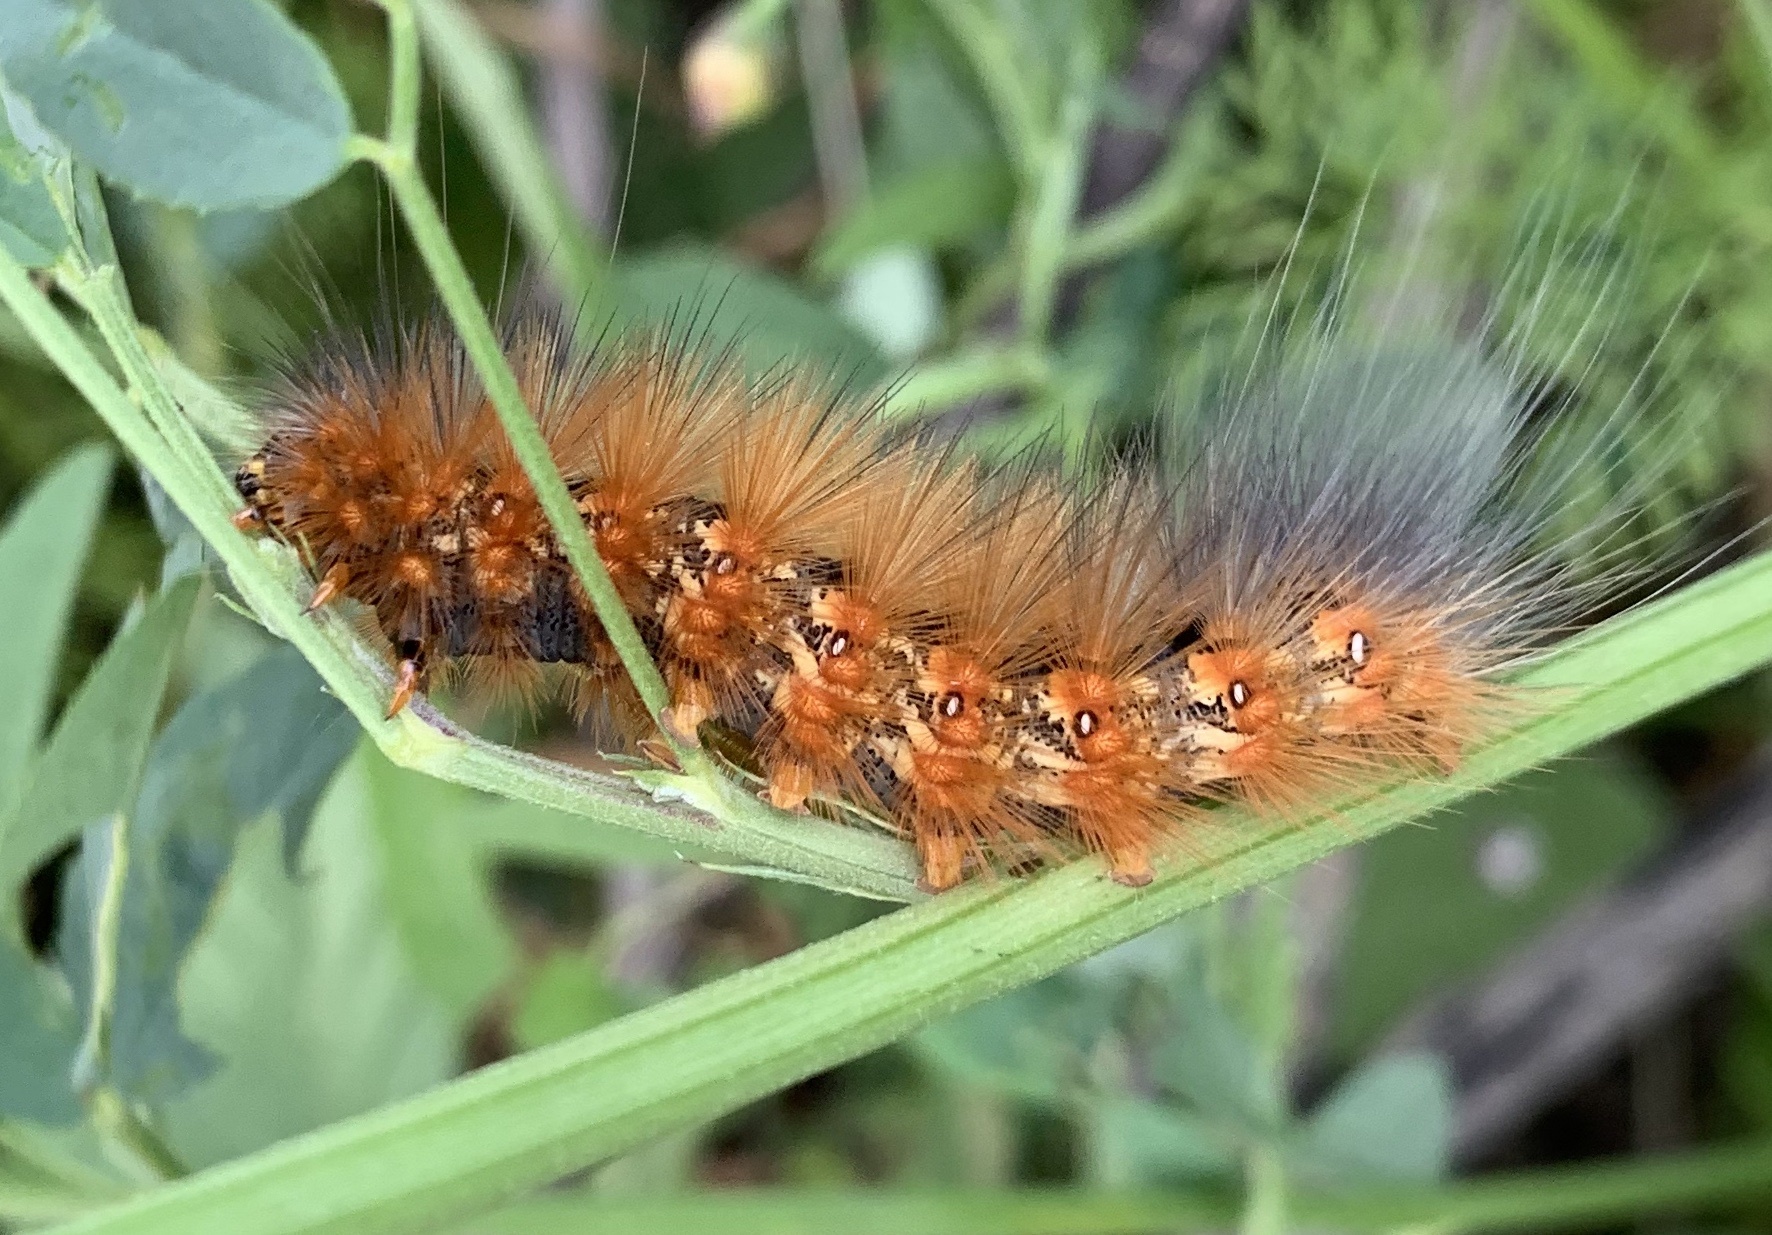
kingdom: Animalia
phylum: Arthropoda
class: Insecta
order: Lepidoptera
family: Erebidae
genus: Estigmene
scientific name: Estigmene acrea
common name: Salt marsh moth
